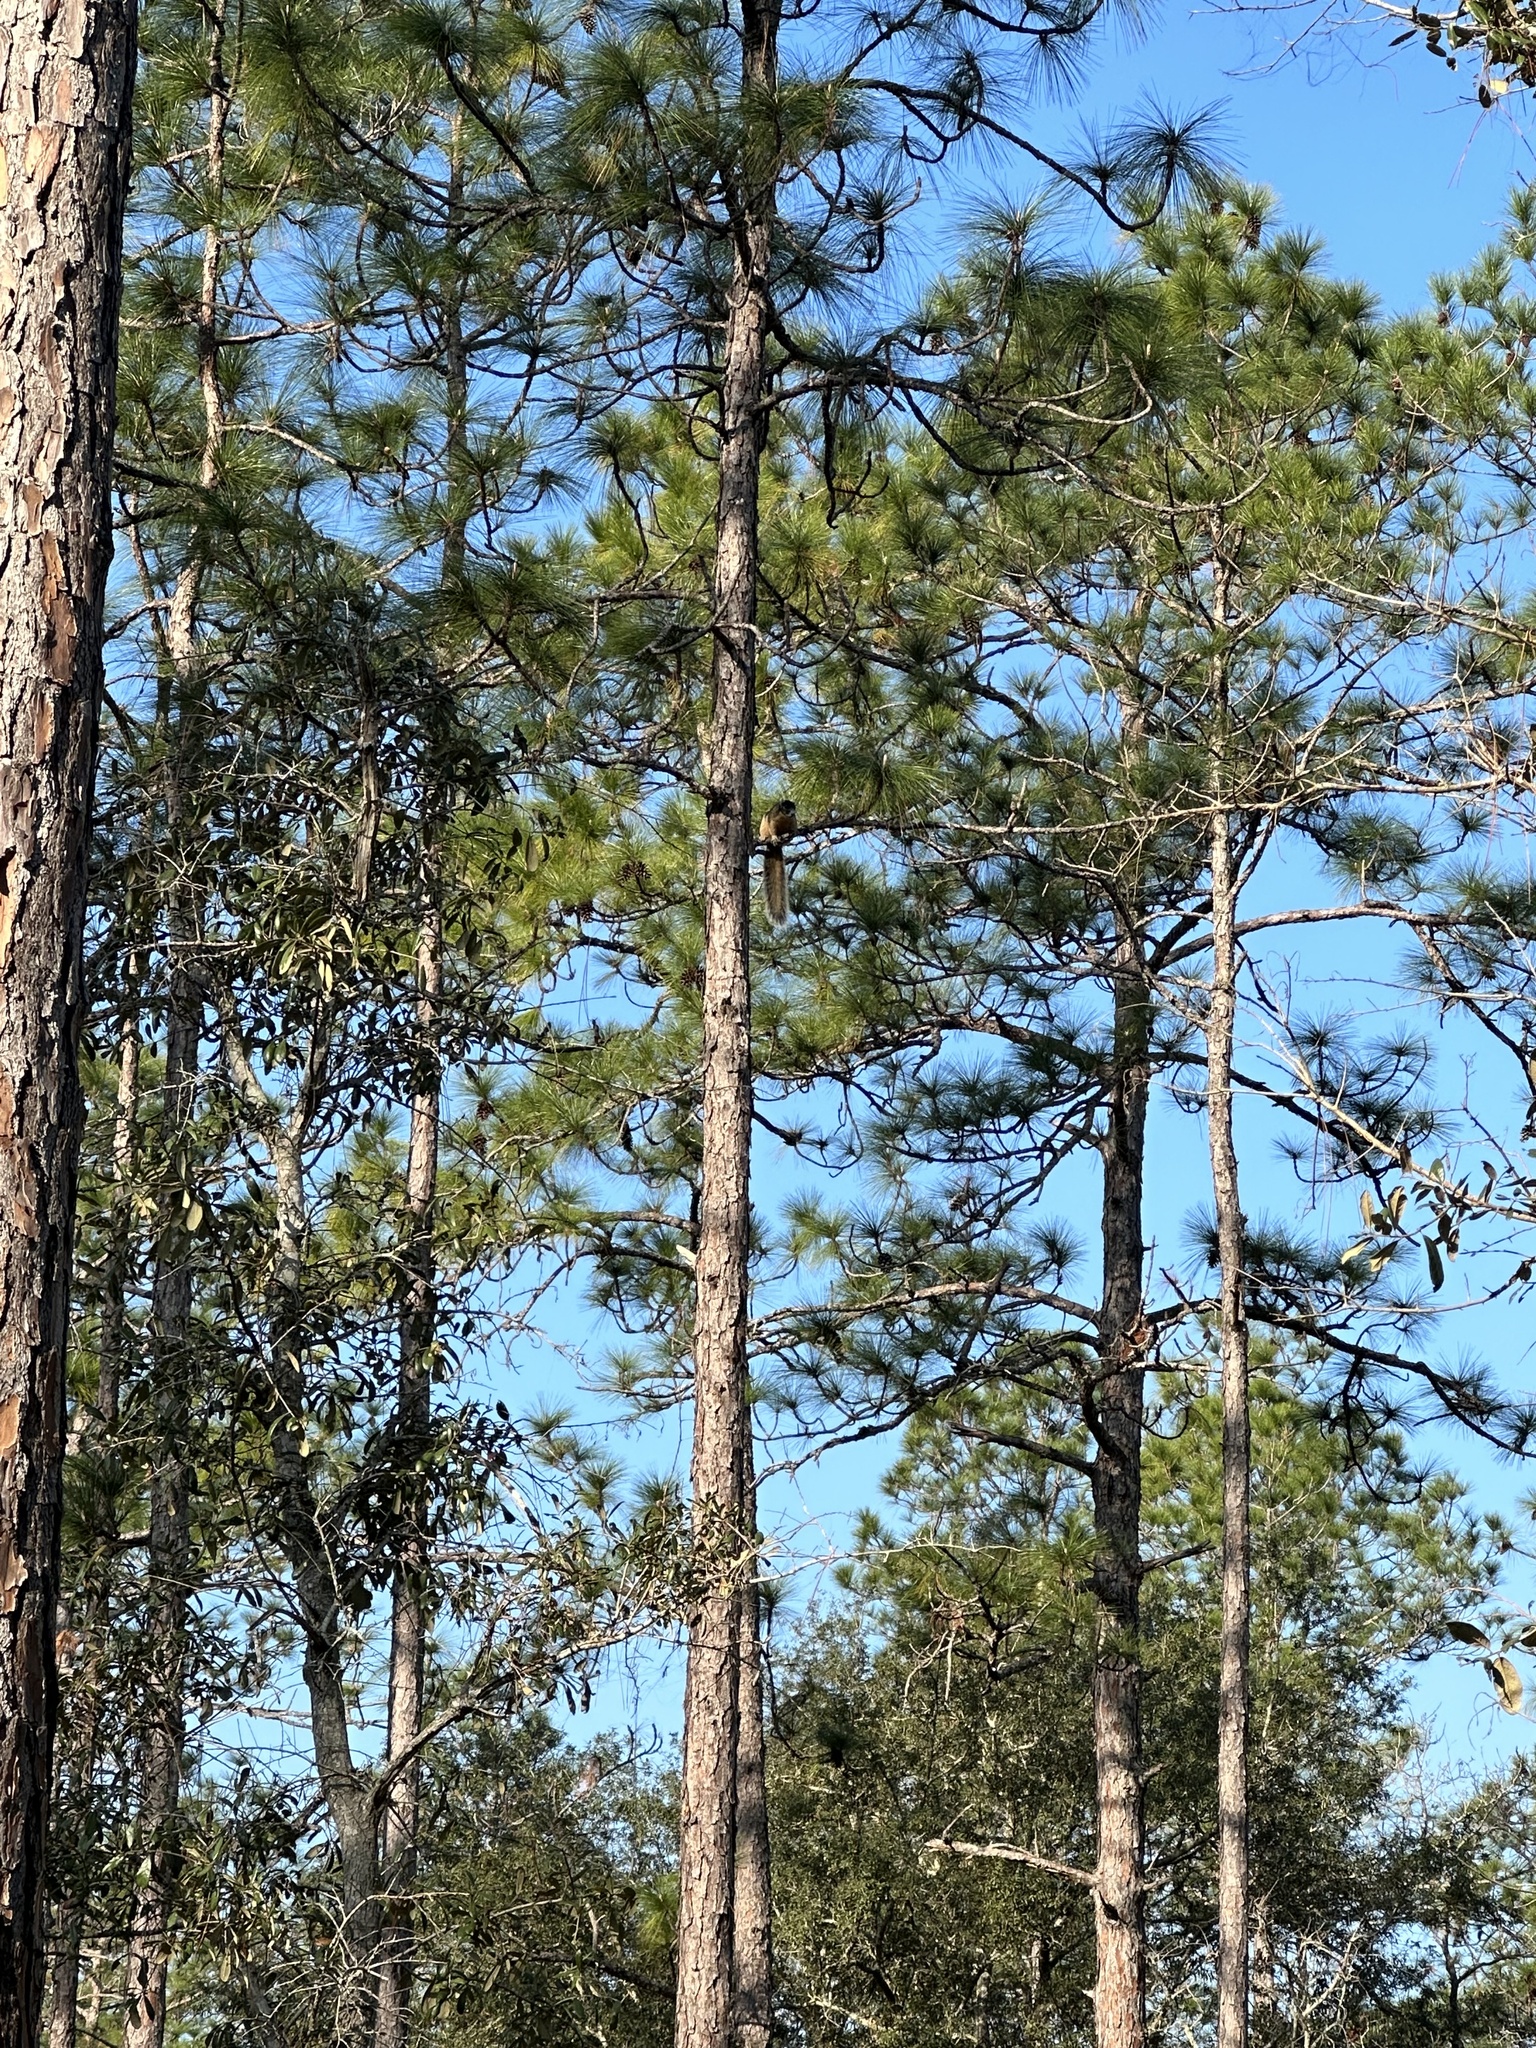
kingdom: Animalia
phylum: Chordata
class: Mammalia
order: Rodentia
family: Sciuridae
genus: Sciurus
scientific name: Sciurus niger
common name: Fox squirrel
